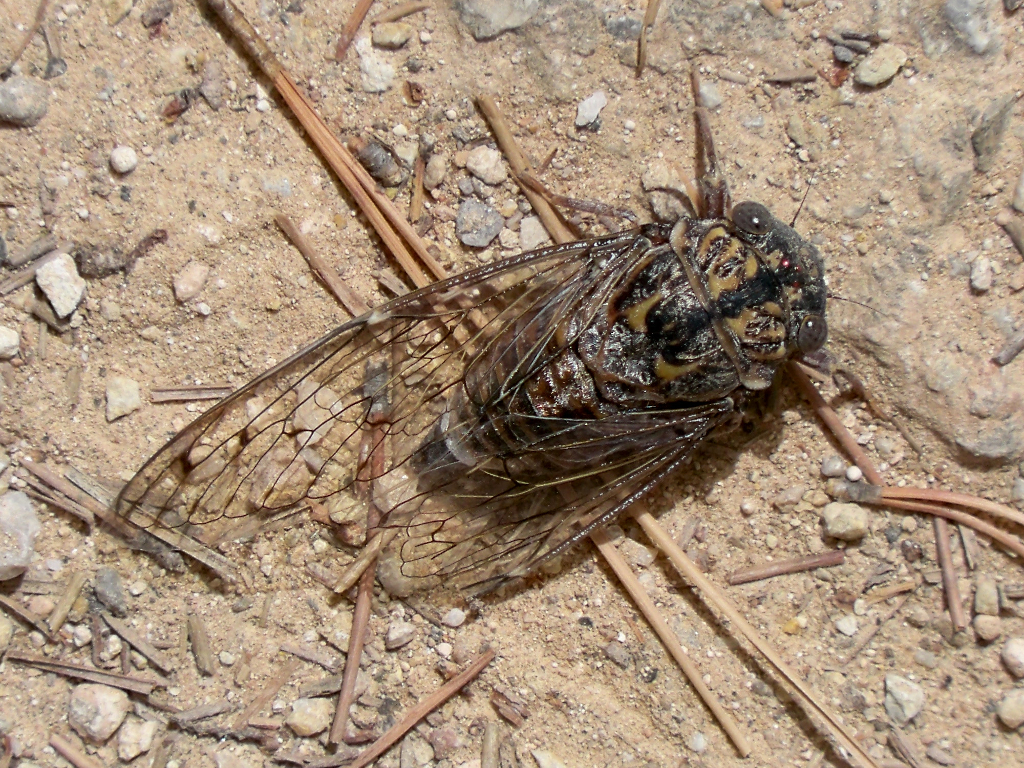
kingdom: Animalia
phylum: Arthropoda
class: Insecta
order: Hemiptera
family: Cicadidae
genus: Cicada
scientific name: Cicada barbara
